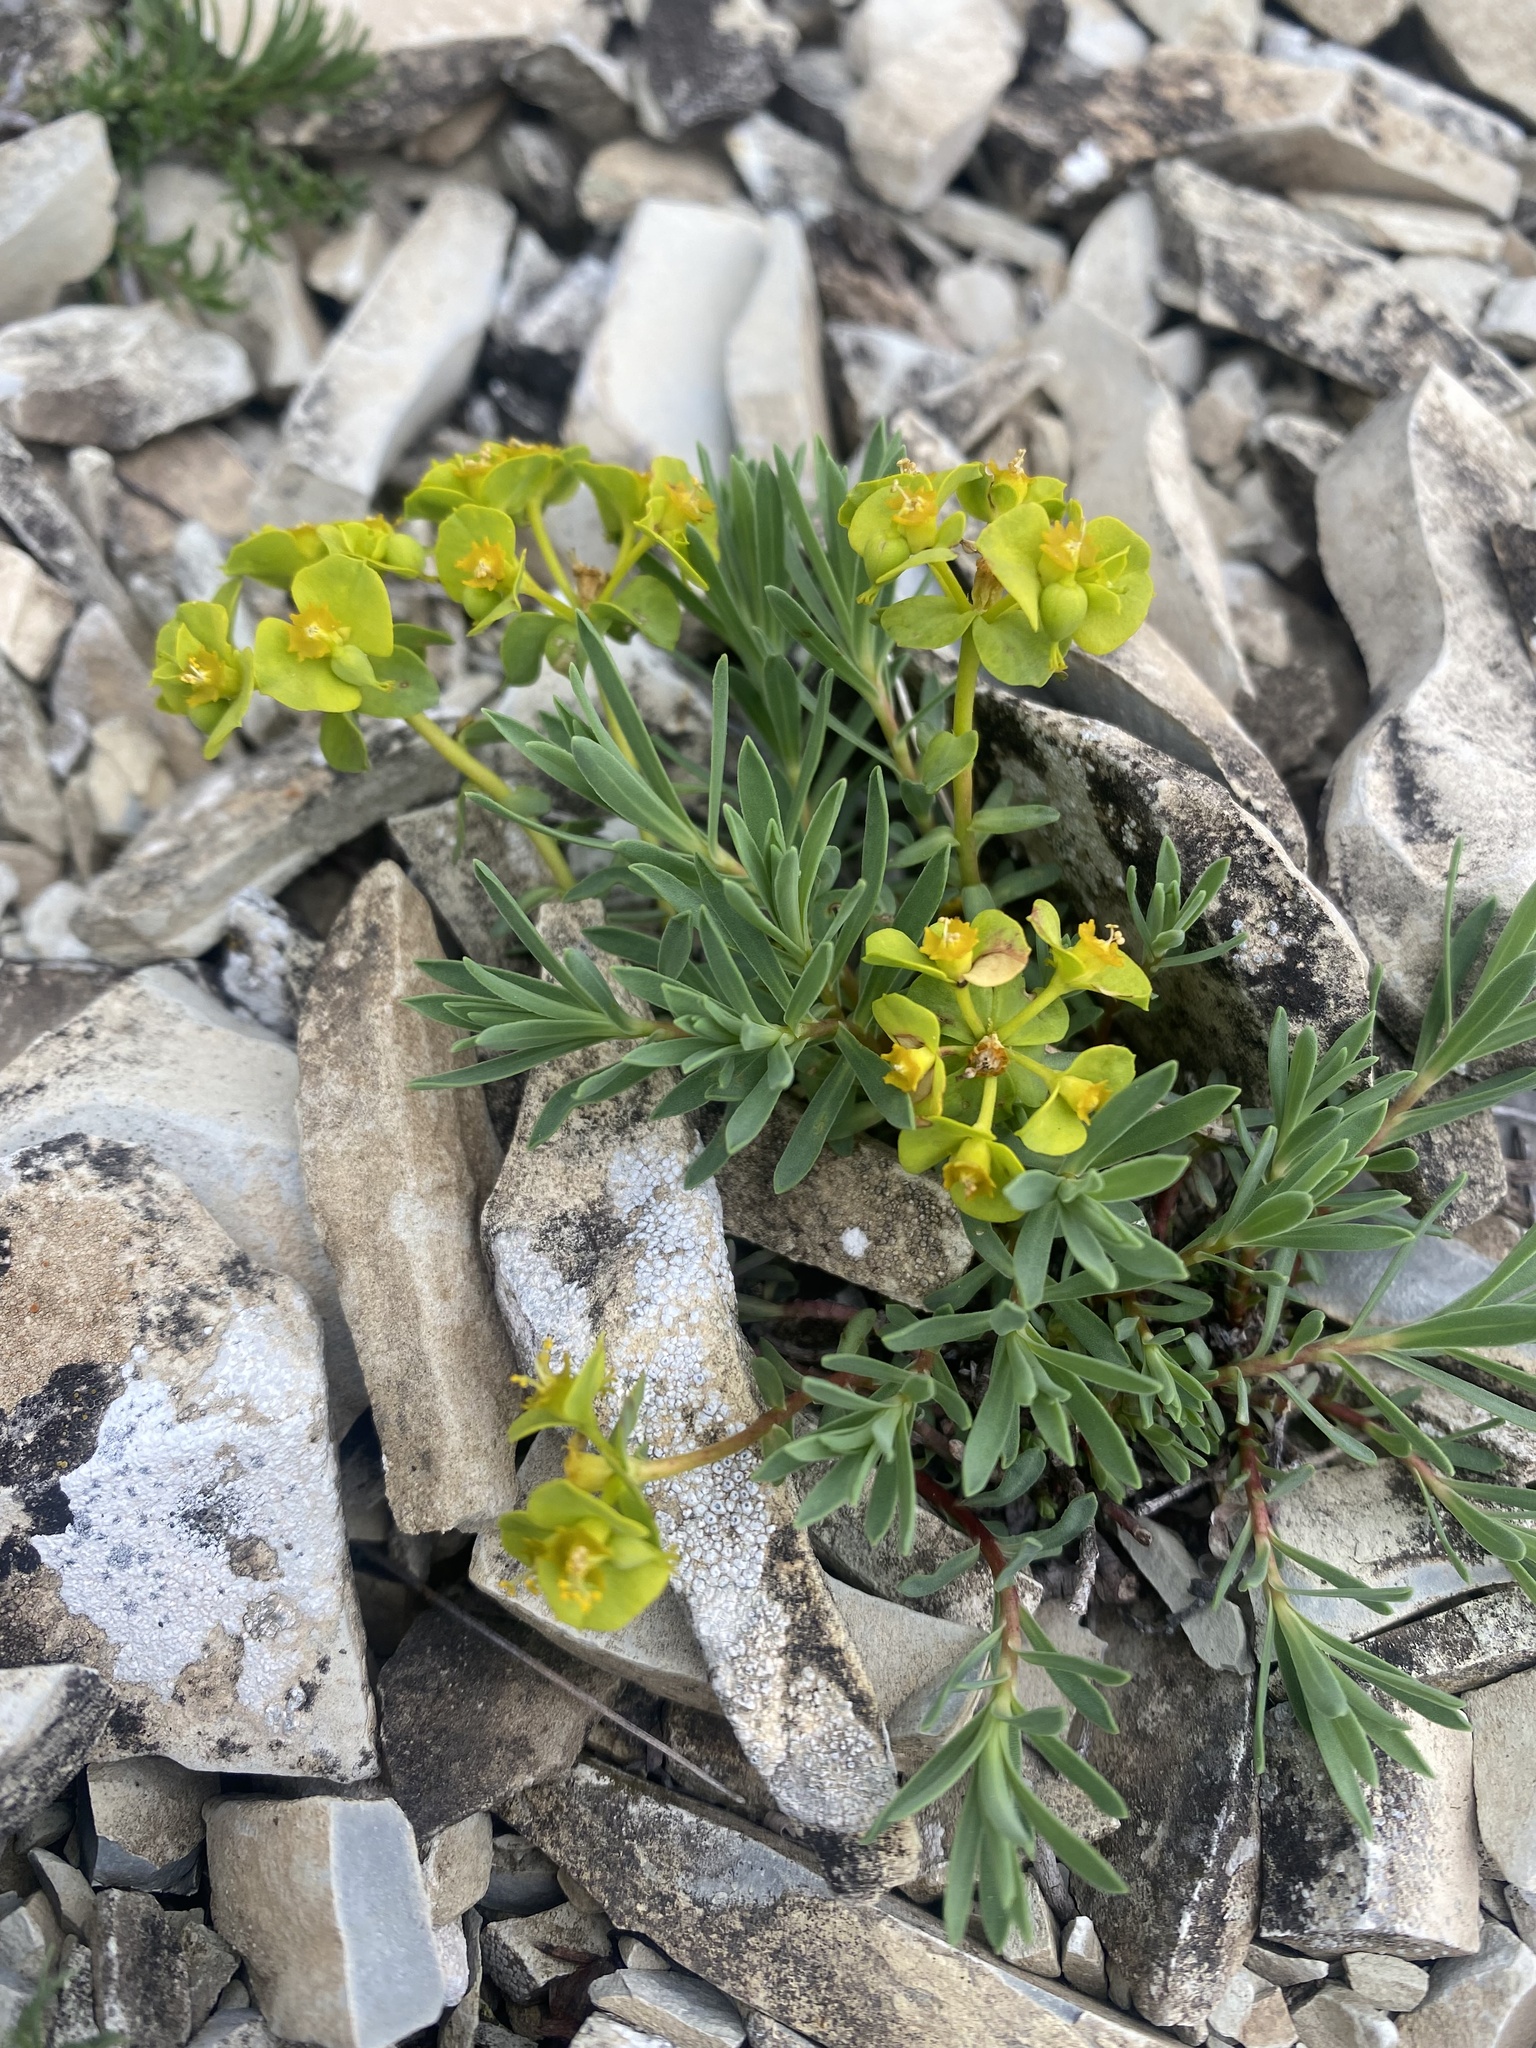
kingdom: Plantae
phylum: Tracheophyta
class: Magnoliopsida
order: Malpighiales
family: Euphorbiaceae
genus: Euphorbia
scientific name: Euphorbia petrophila
